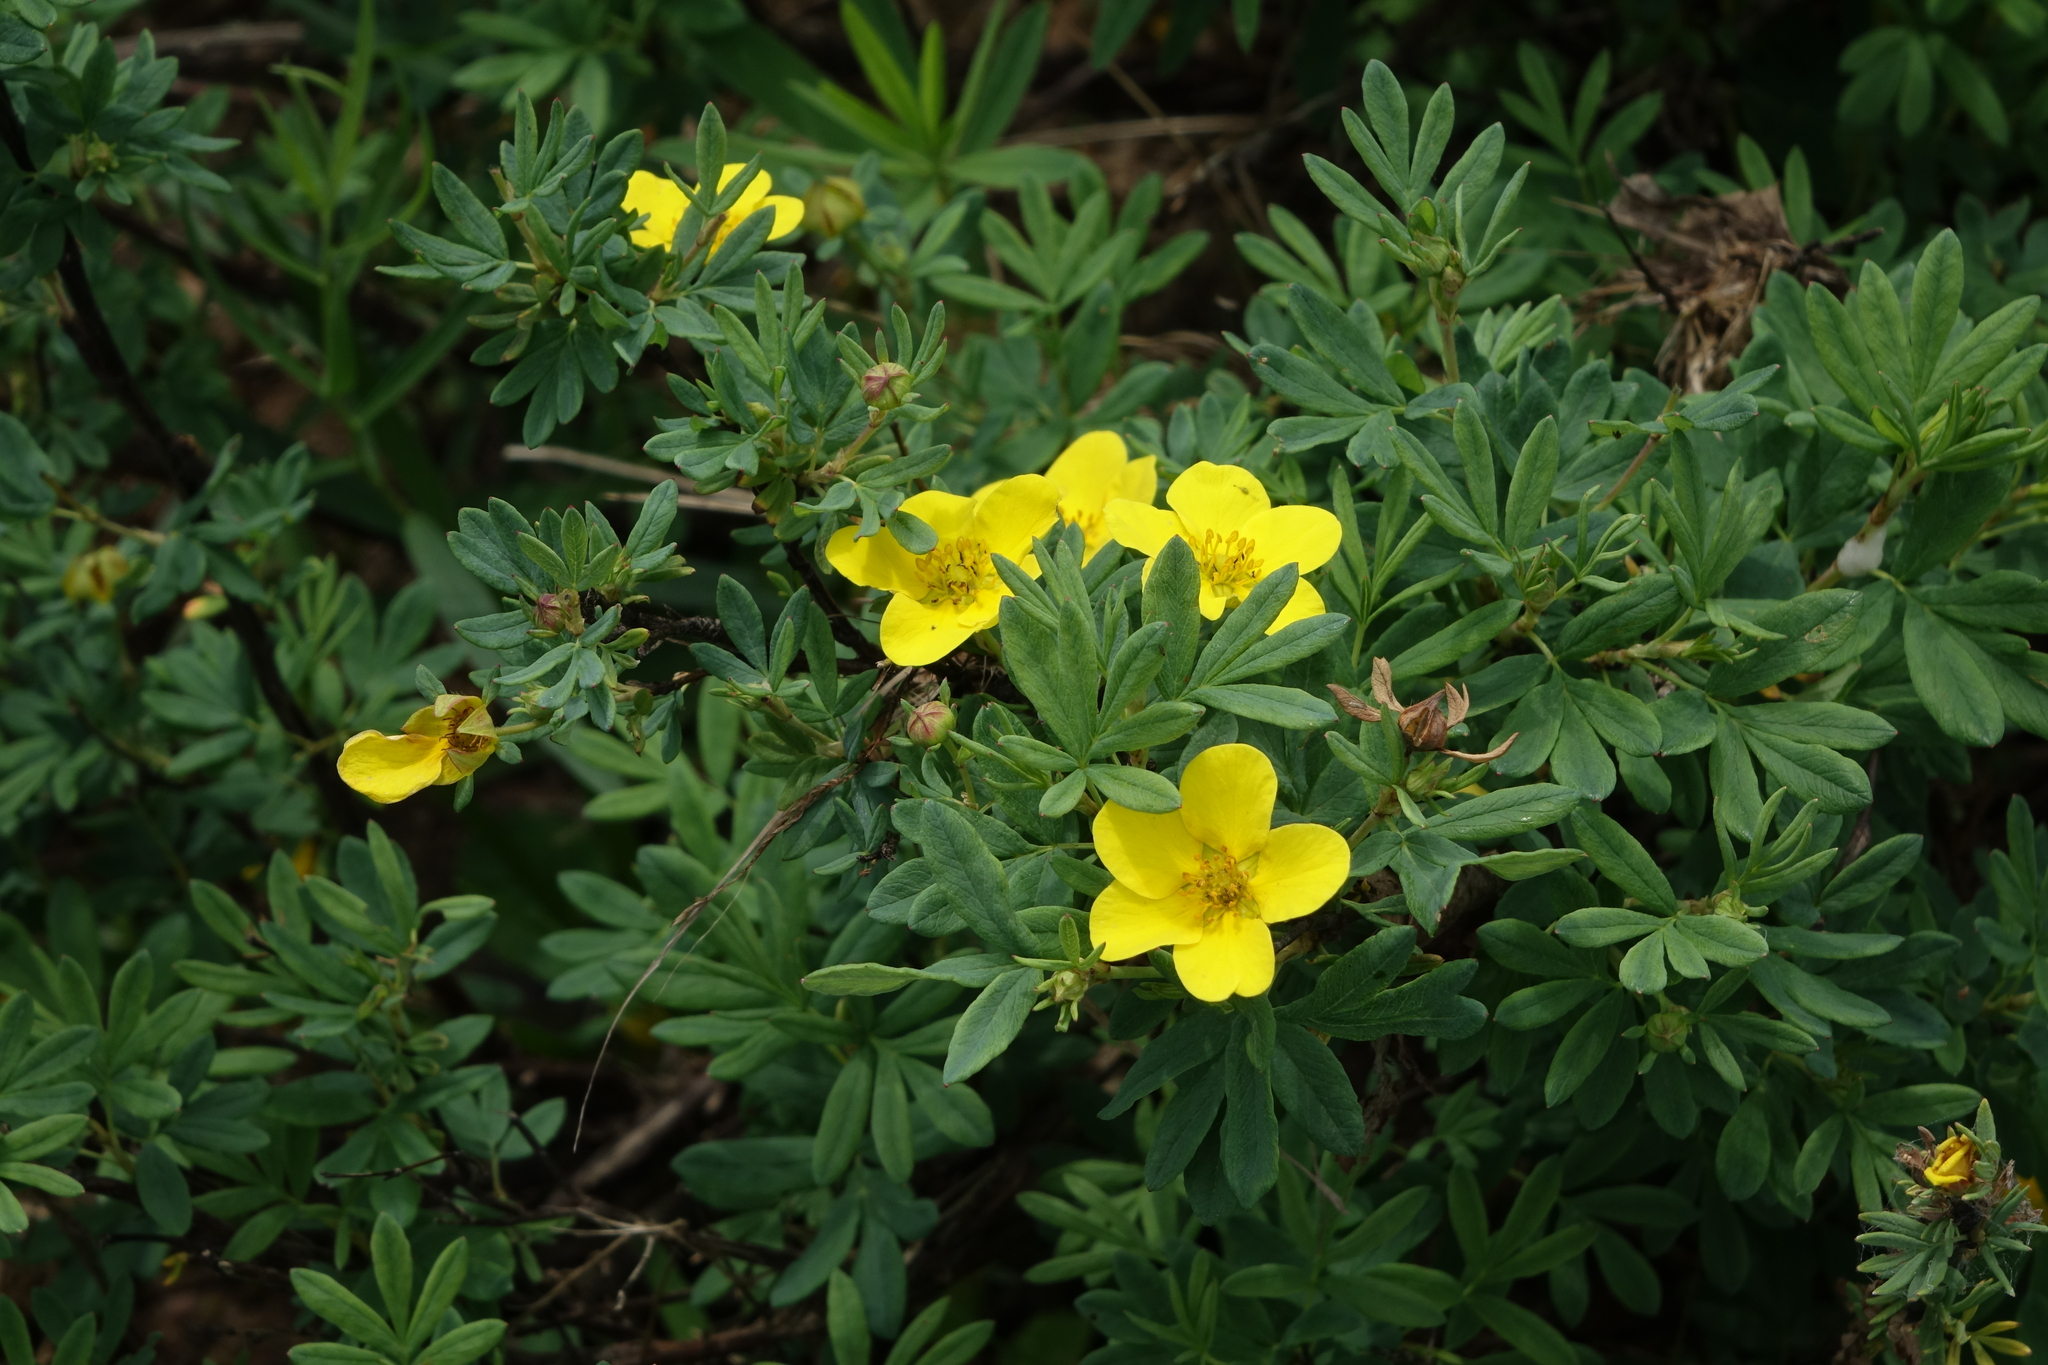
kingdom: Plantae
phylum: Tracheophyta
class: Magnoliopsida
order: Rosales
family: Rosaceae
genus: Dasiphora
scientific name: Dasiphora fruticosa
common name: Shrubby cinquefoil
